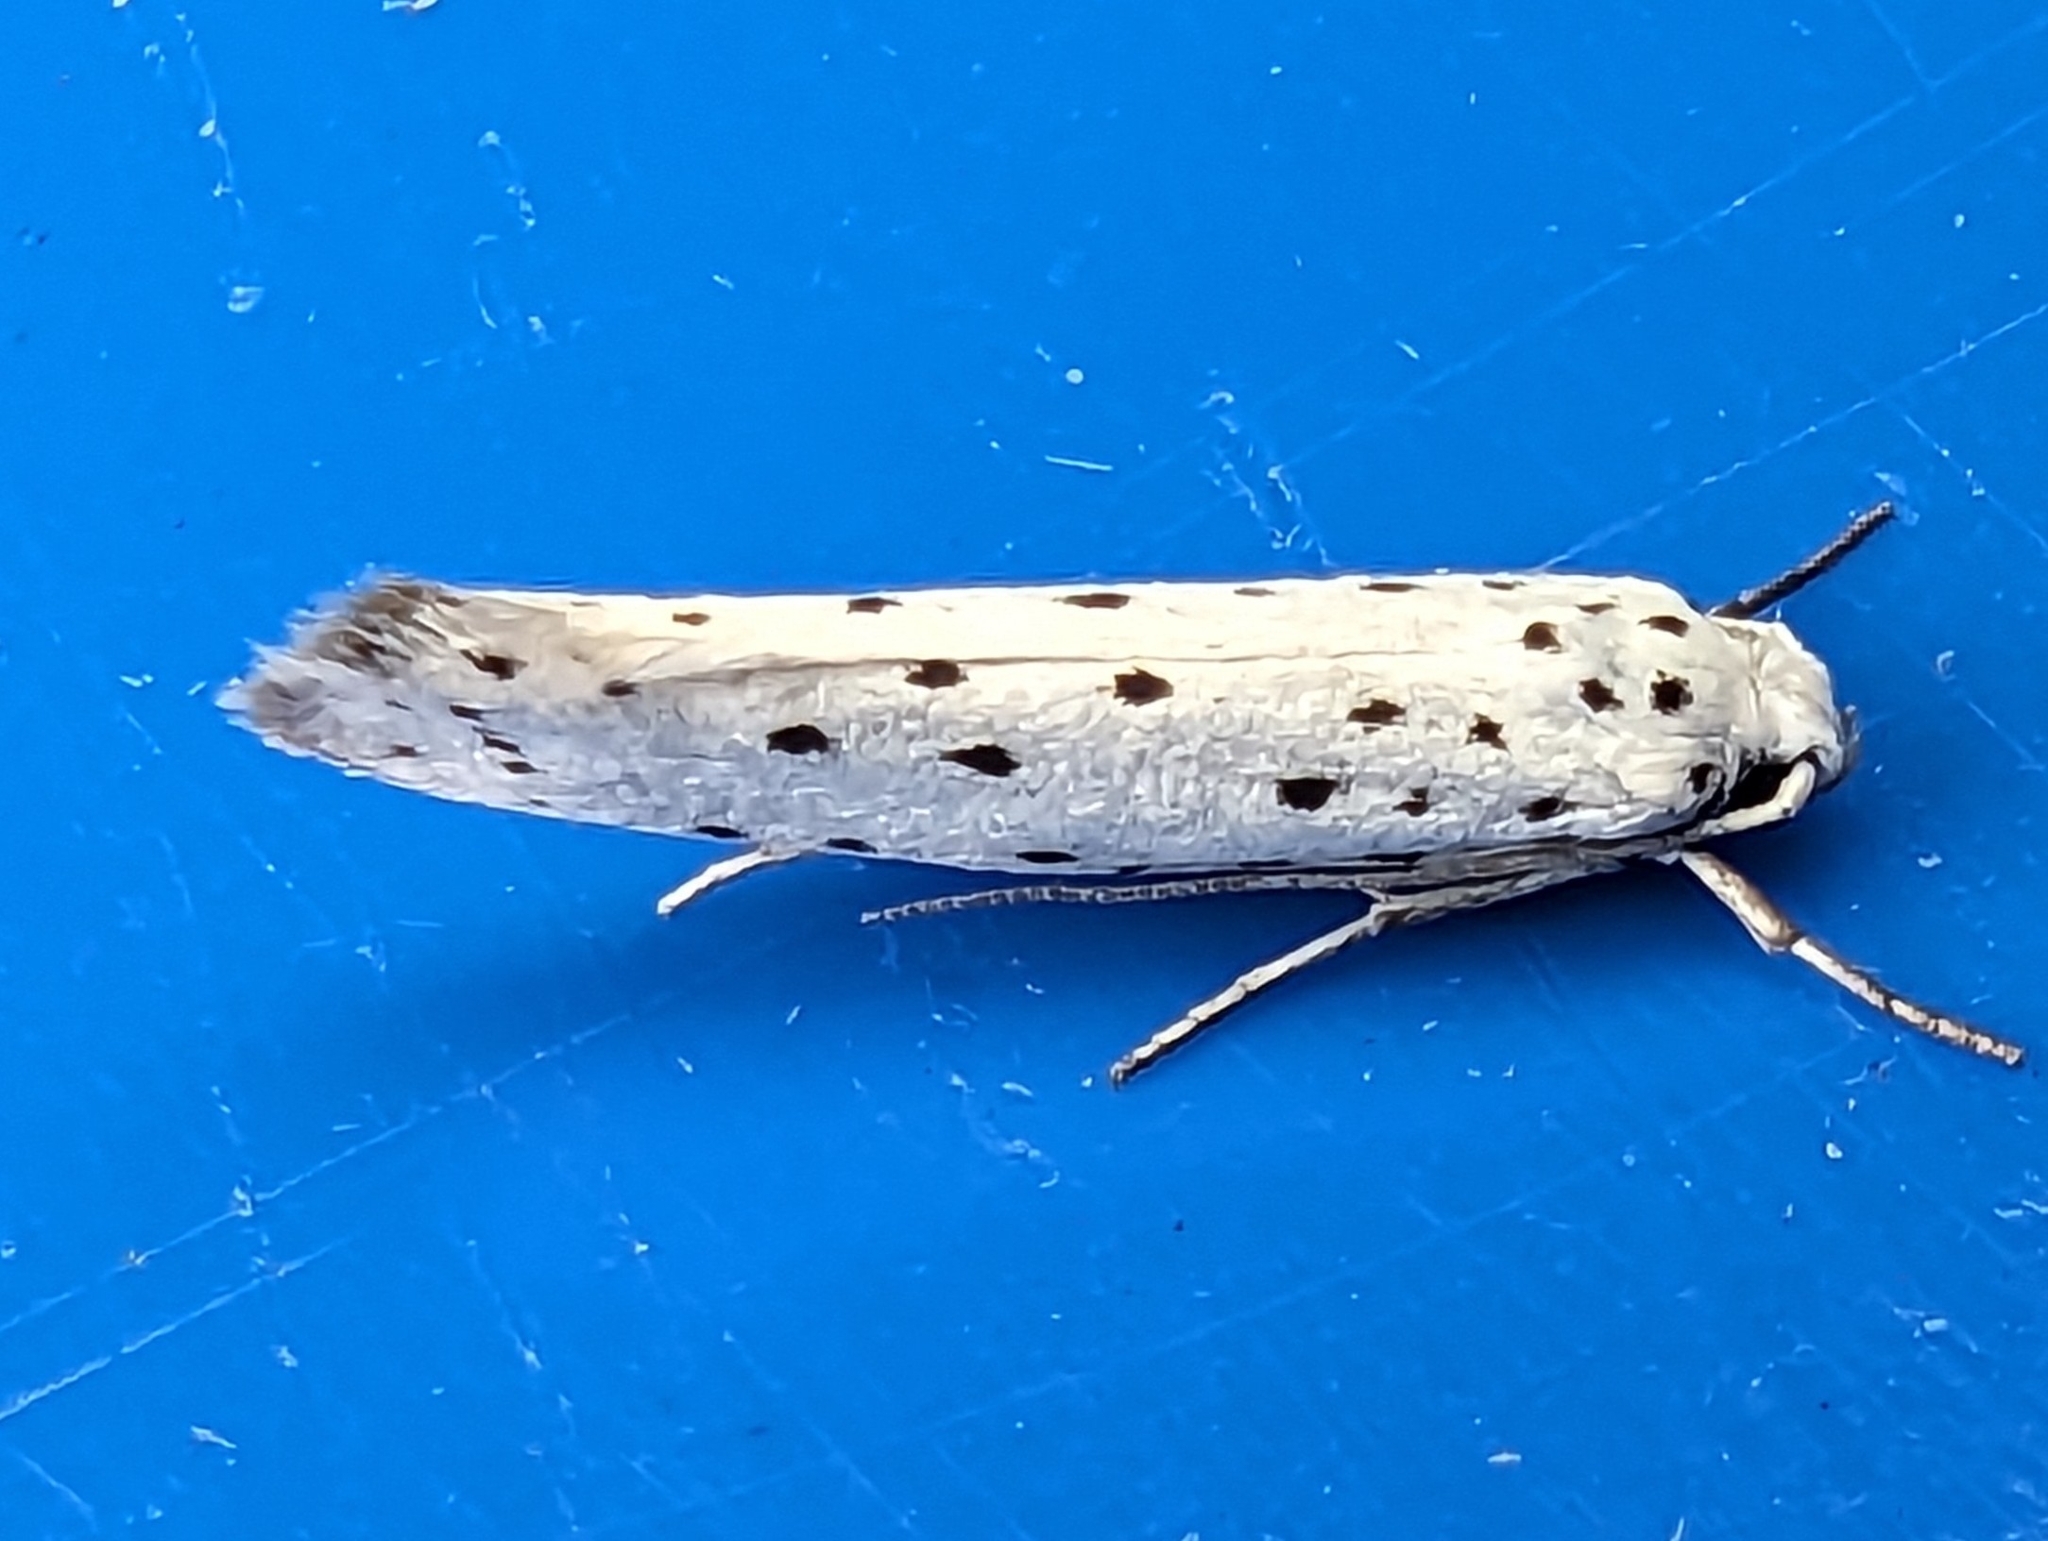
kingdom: Animalia
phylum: Arthropoda
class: Insecta
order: Lepidoptera
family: Yponomeutidae
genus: Yponomeuta
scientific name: Yponomeuta
